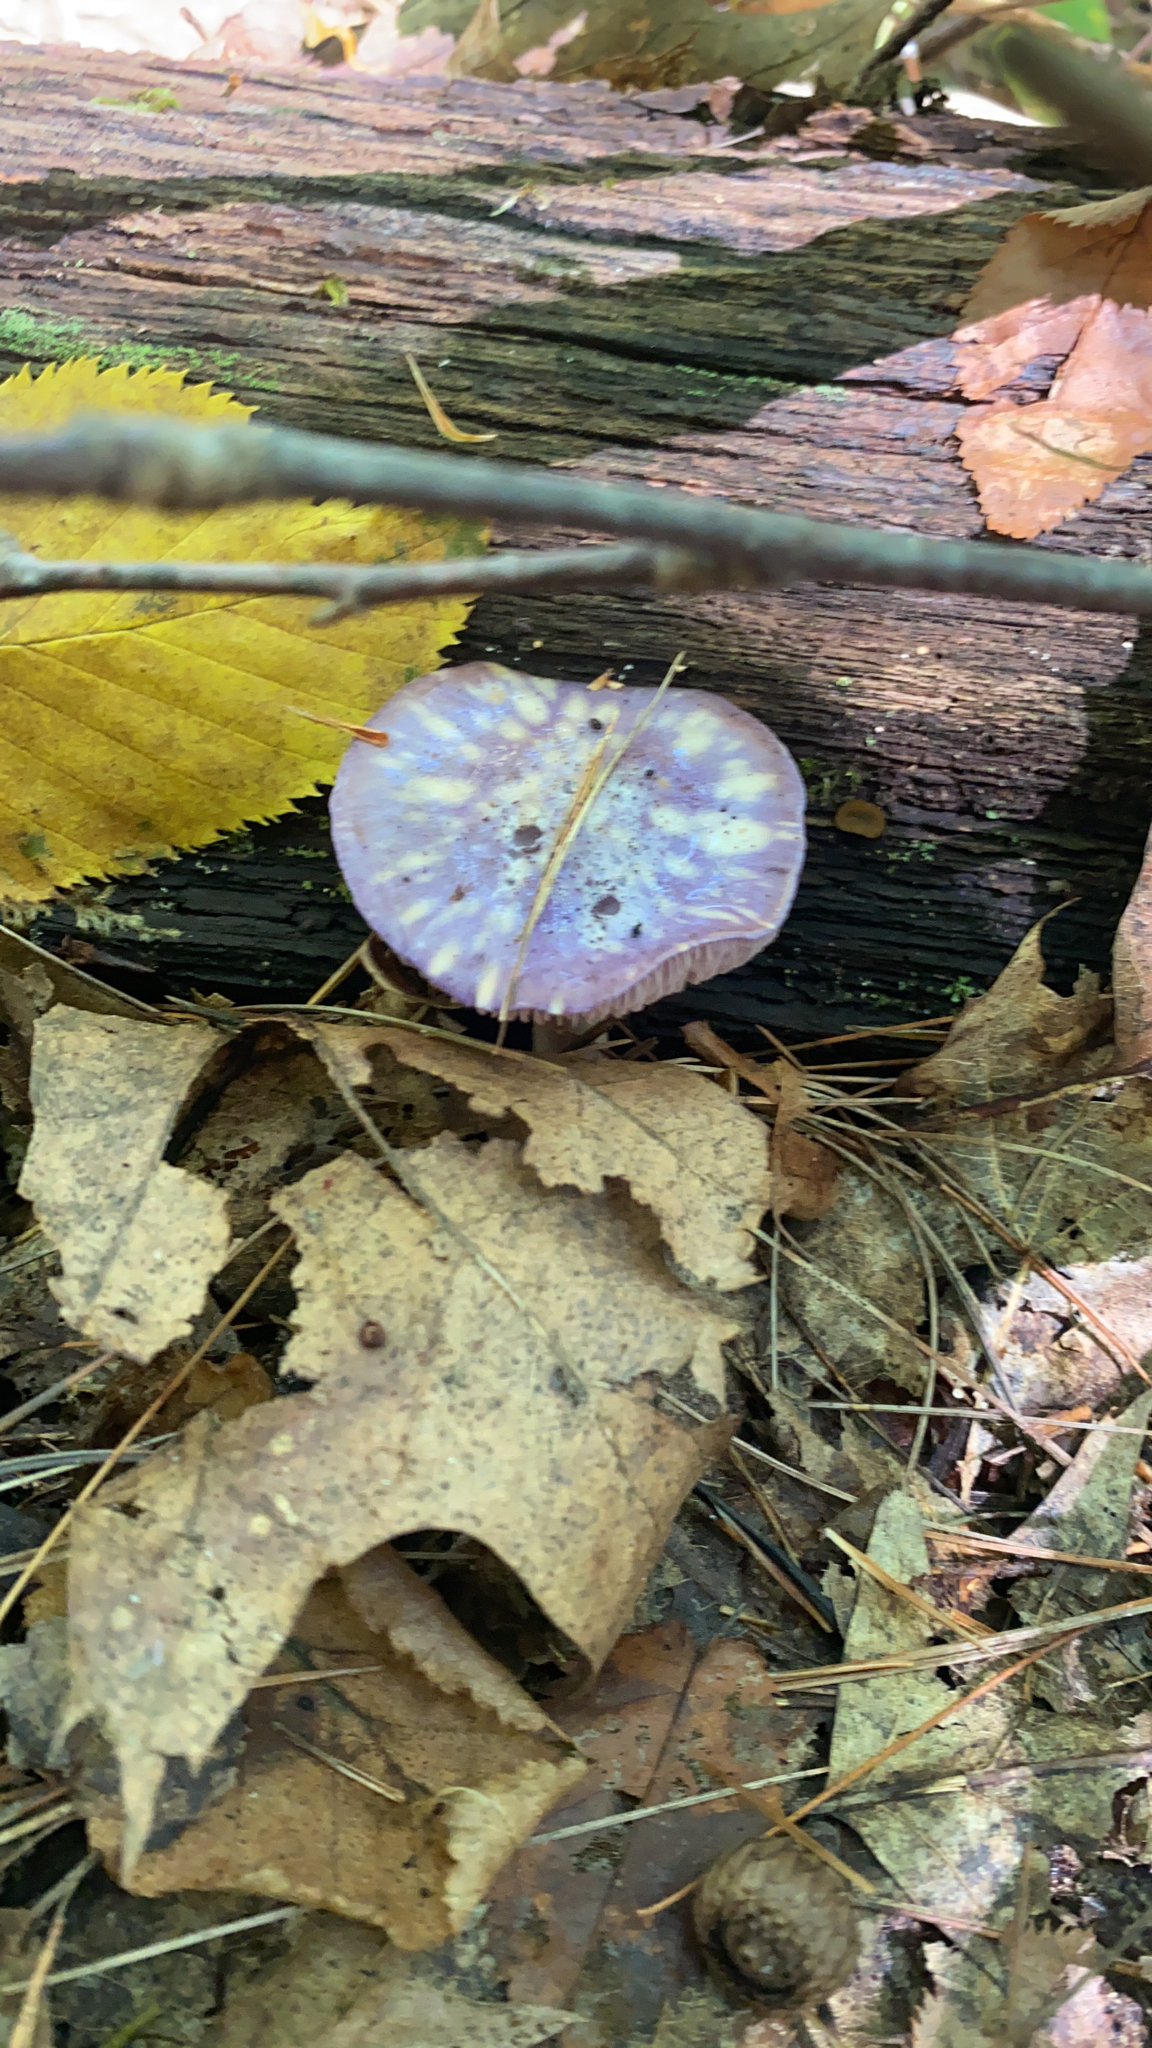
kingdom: Fungi
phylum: Basidiomycota
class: Agaricomycetes
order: Agaricales
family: Cortinariaceae
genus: Cortinarius
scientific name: Cortinarius iodes
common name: Viscid violet cort
